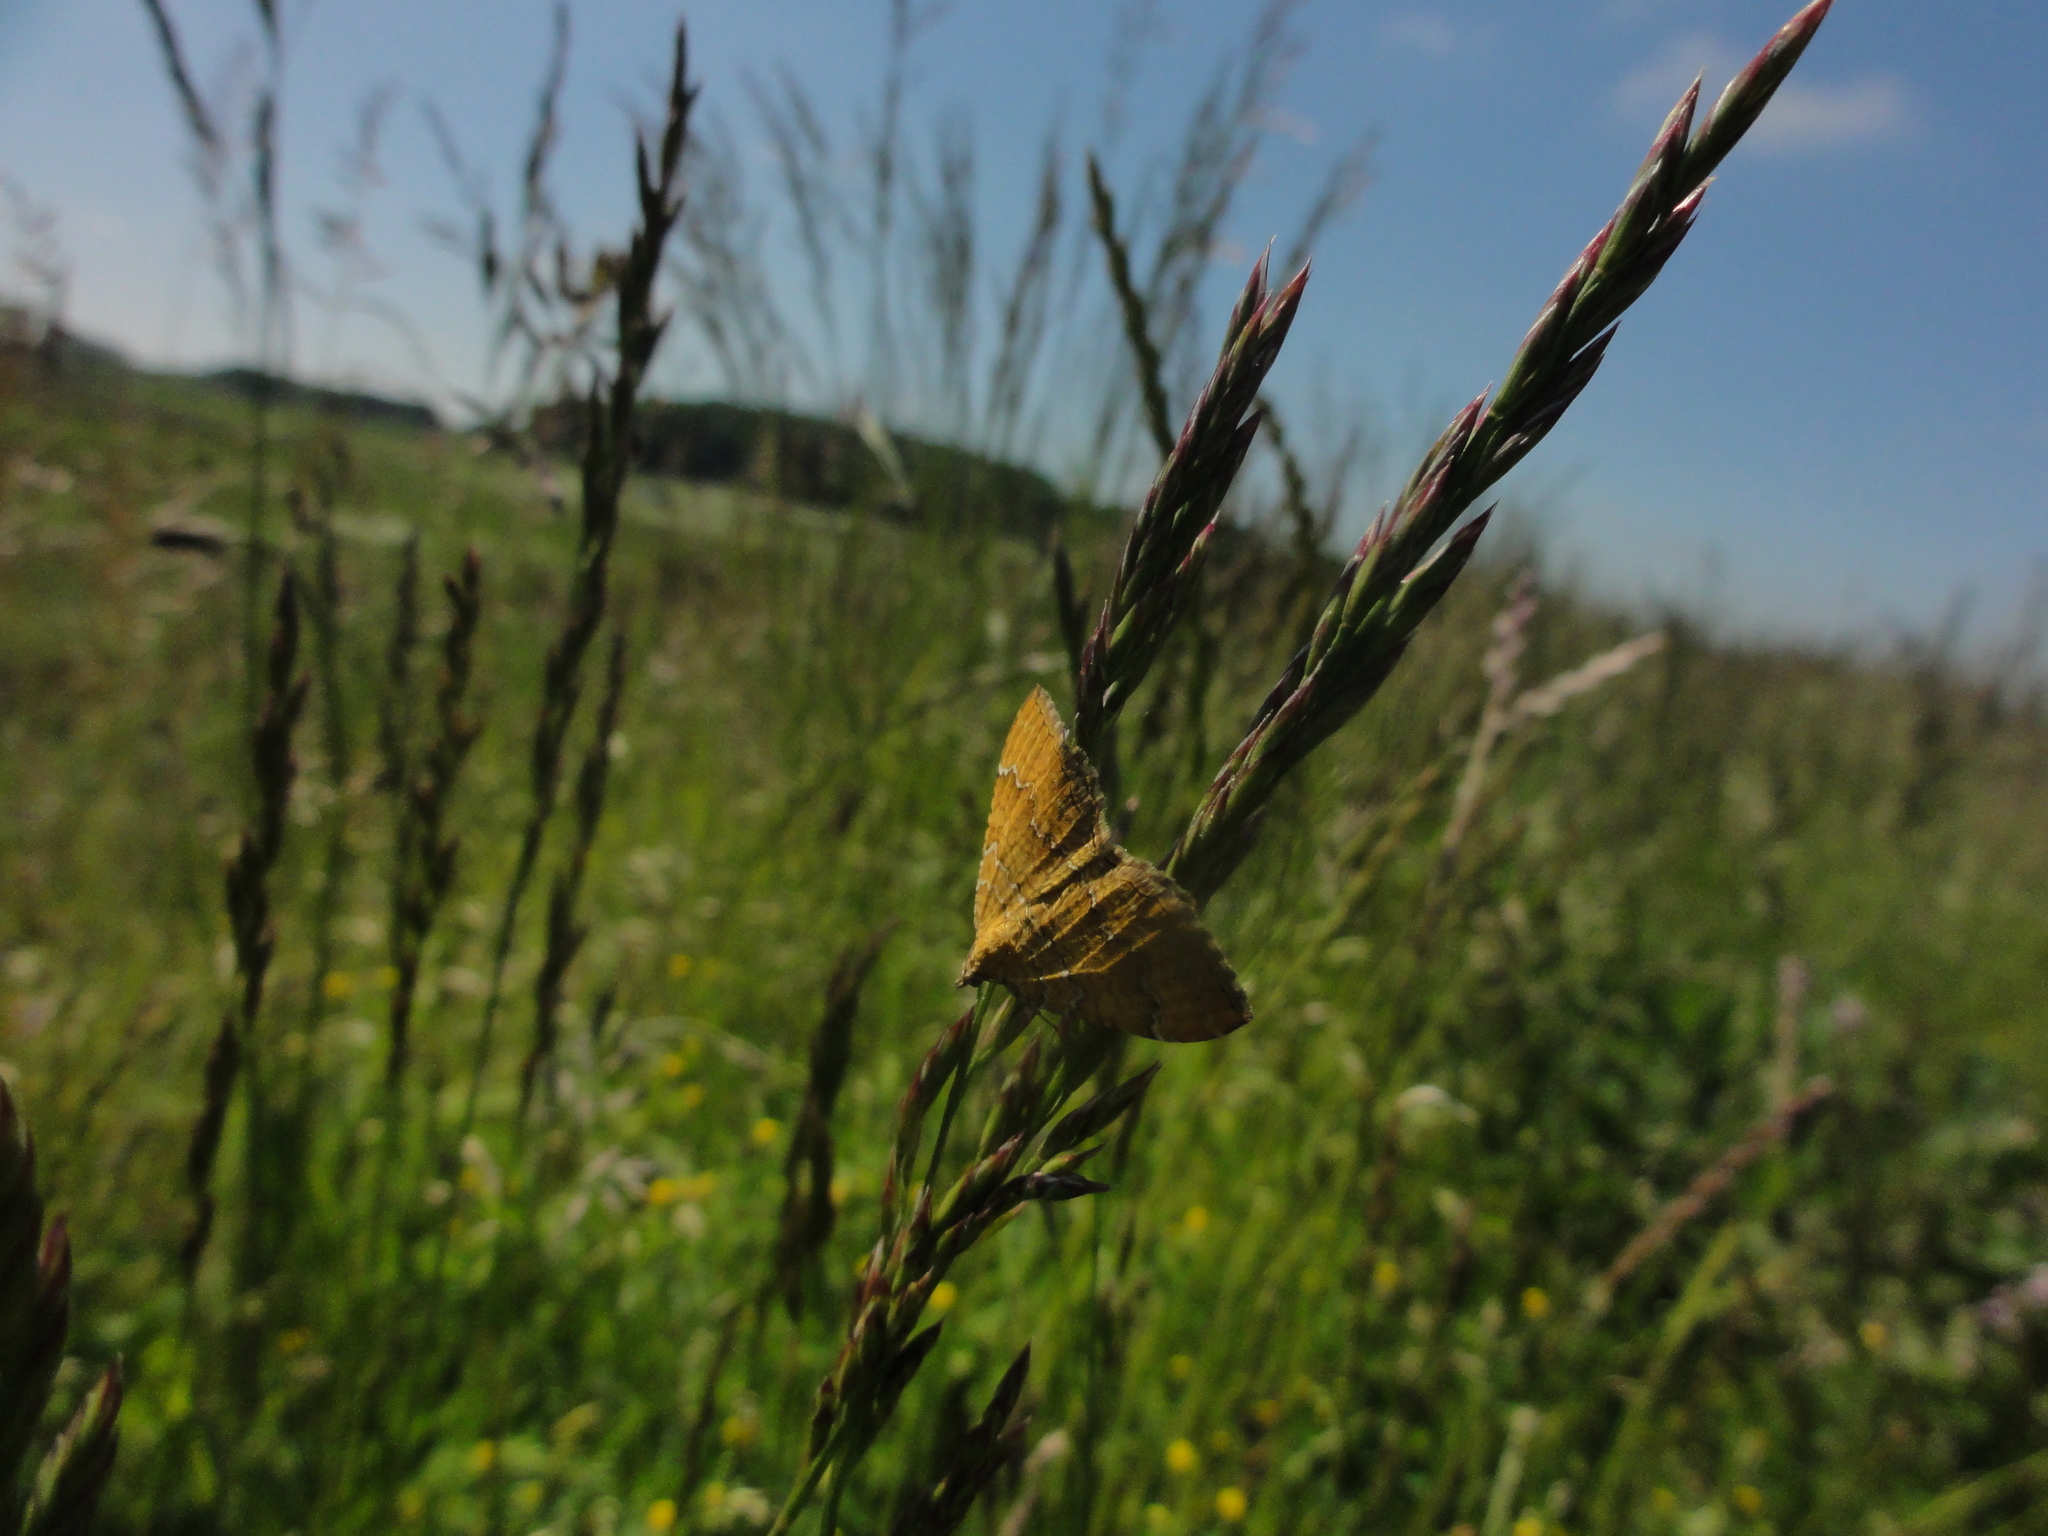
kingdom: Animalia
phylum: Arthropoda
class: Insecta
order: Lepidoptera
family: Geometridae
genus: Camptogramma
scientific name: Camptogramma bilineata
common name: Yellow shell
